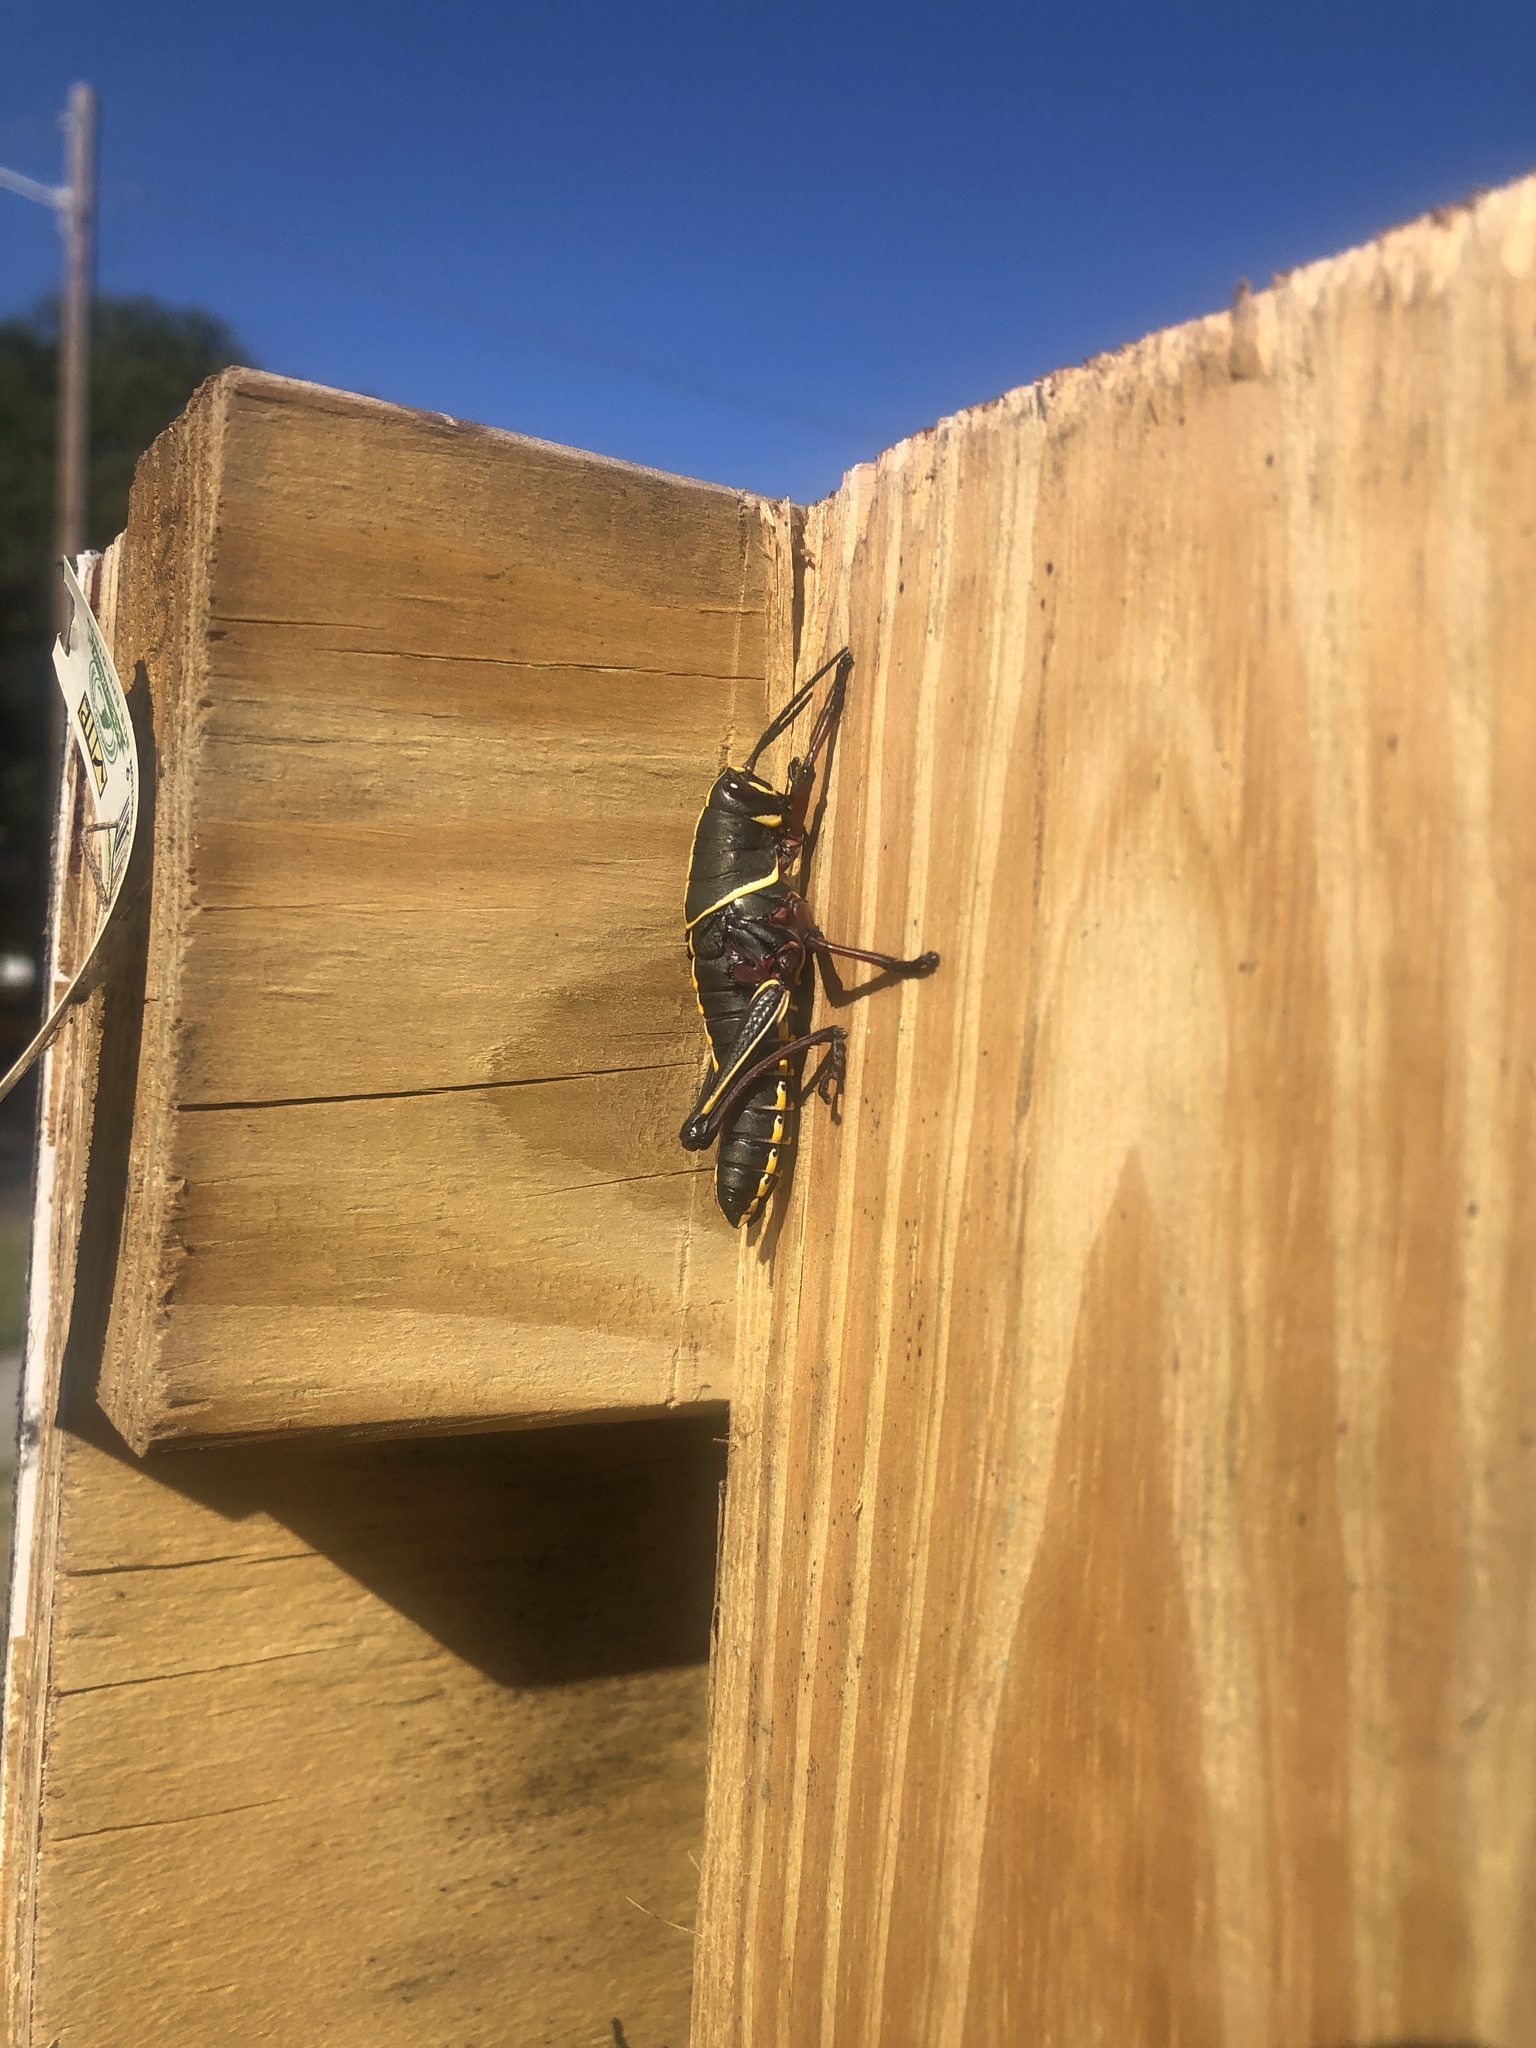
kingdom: Animalia
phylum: Arthropoda
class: Insecta
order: Orthoptera
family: Romaleidae
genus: Romalea
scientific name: Romalea microptera
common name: Eastern lubber grasshopper
